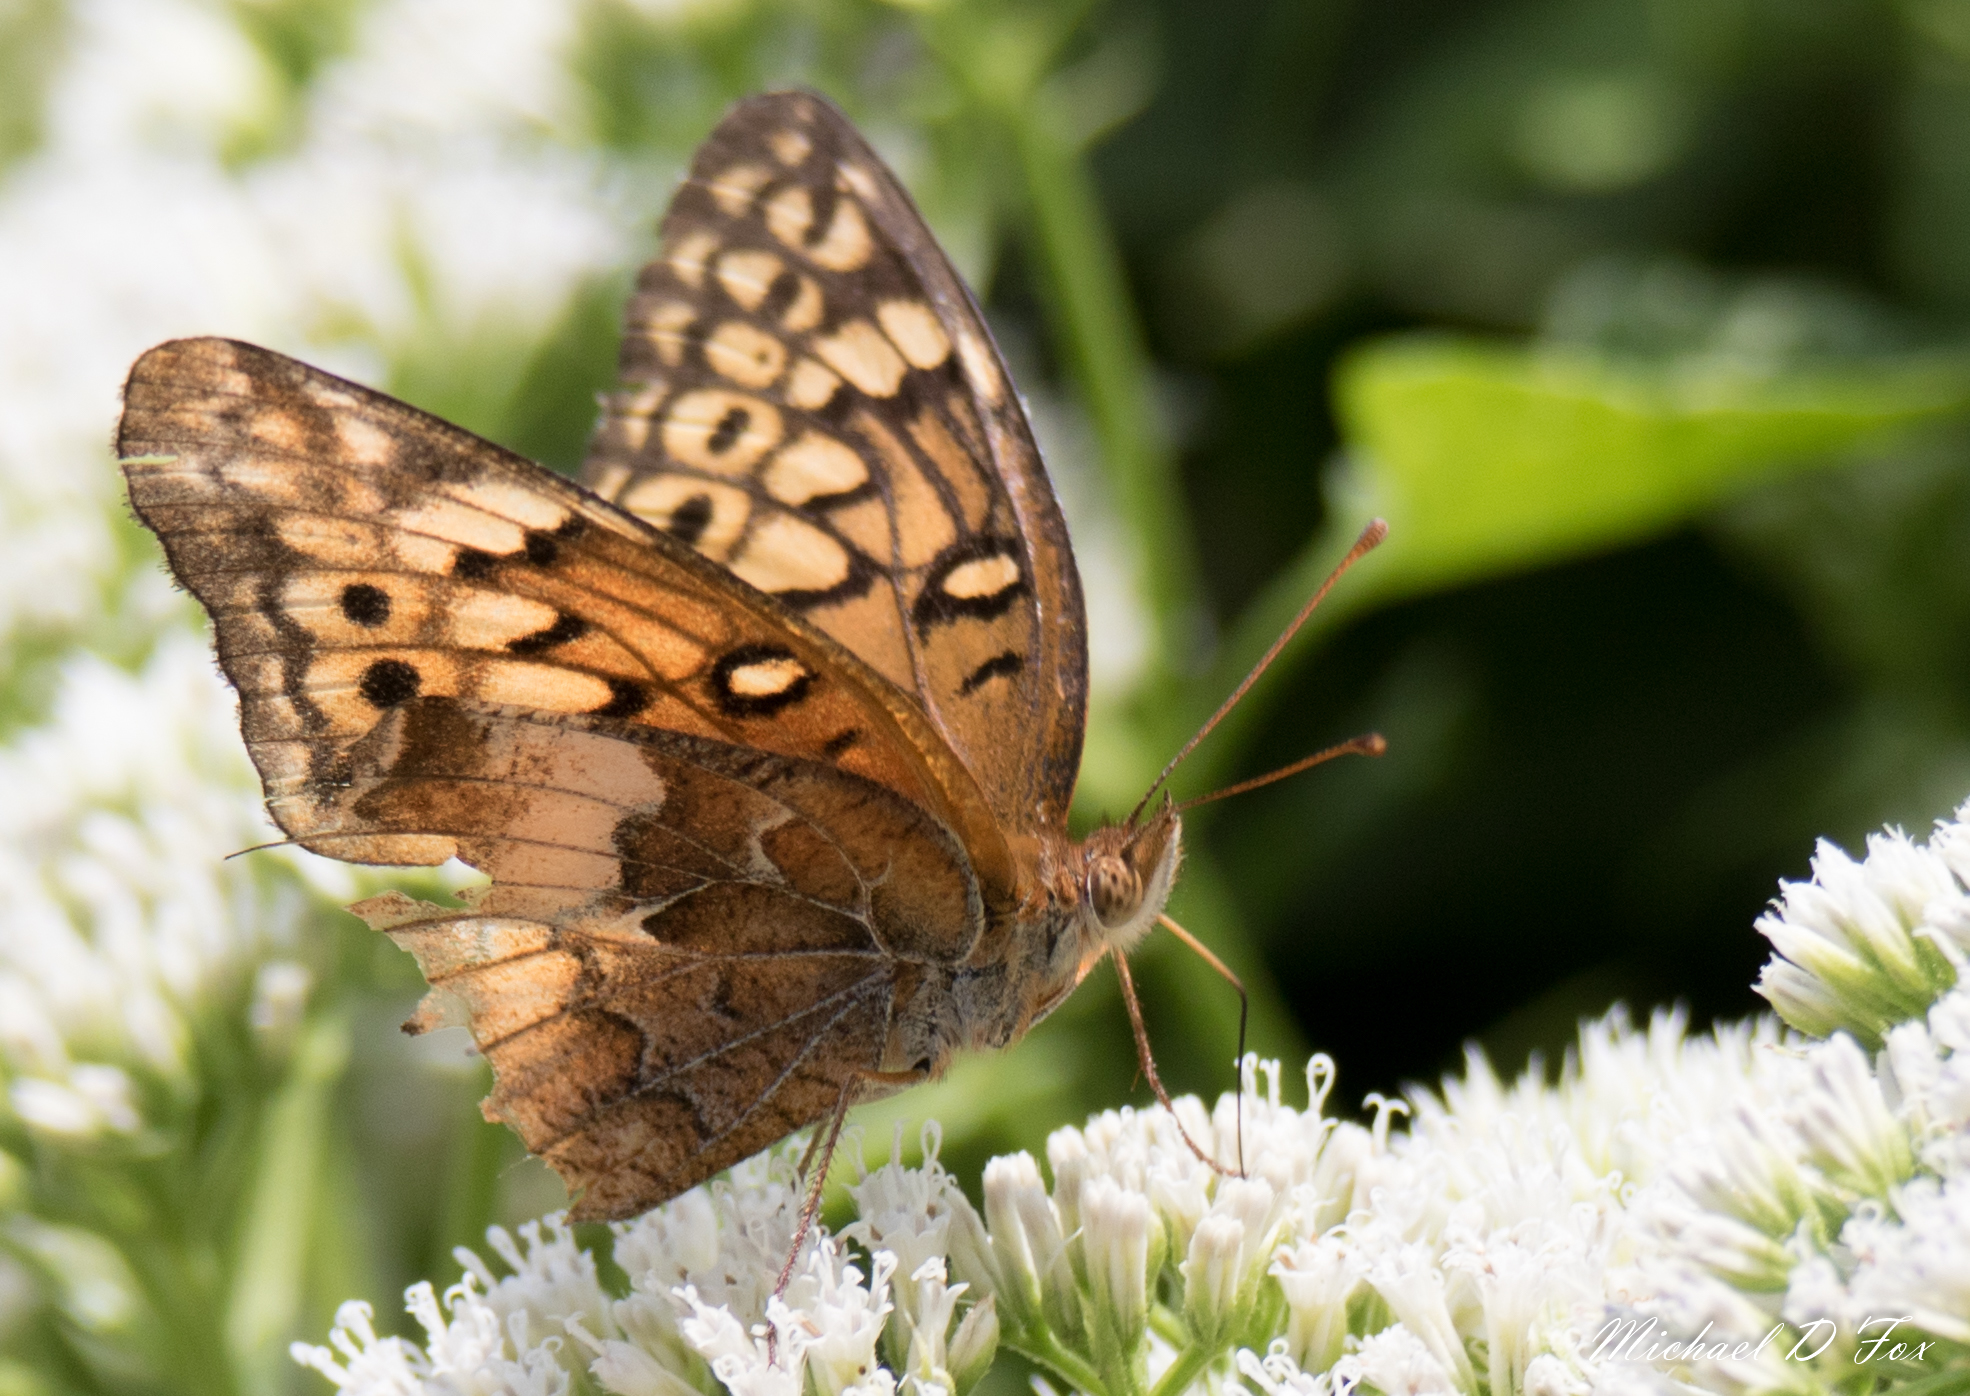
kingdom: Animalia
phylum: Arthropoda
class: Insecta
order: Lepidoptera
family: Nymphalidae
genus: Euptoieta
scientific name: Euptoieta claudia
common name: Variegated fritillary
